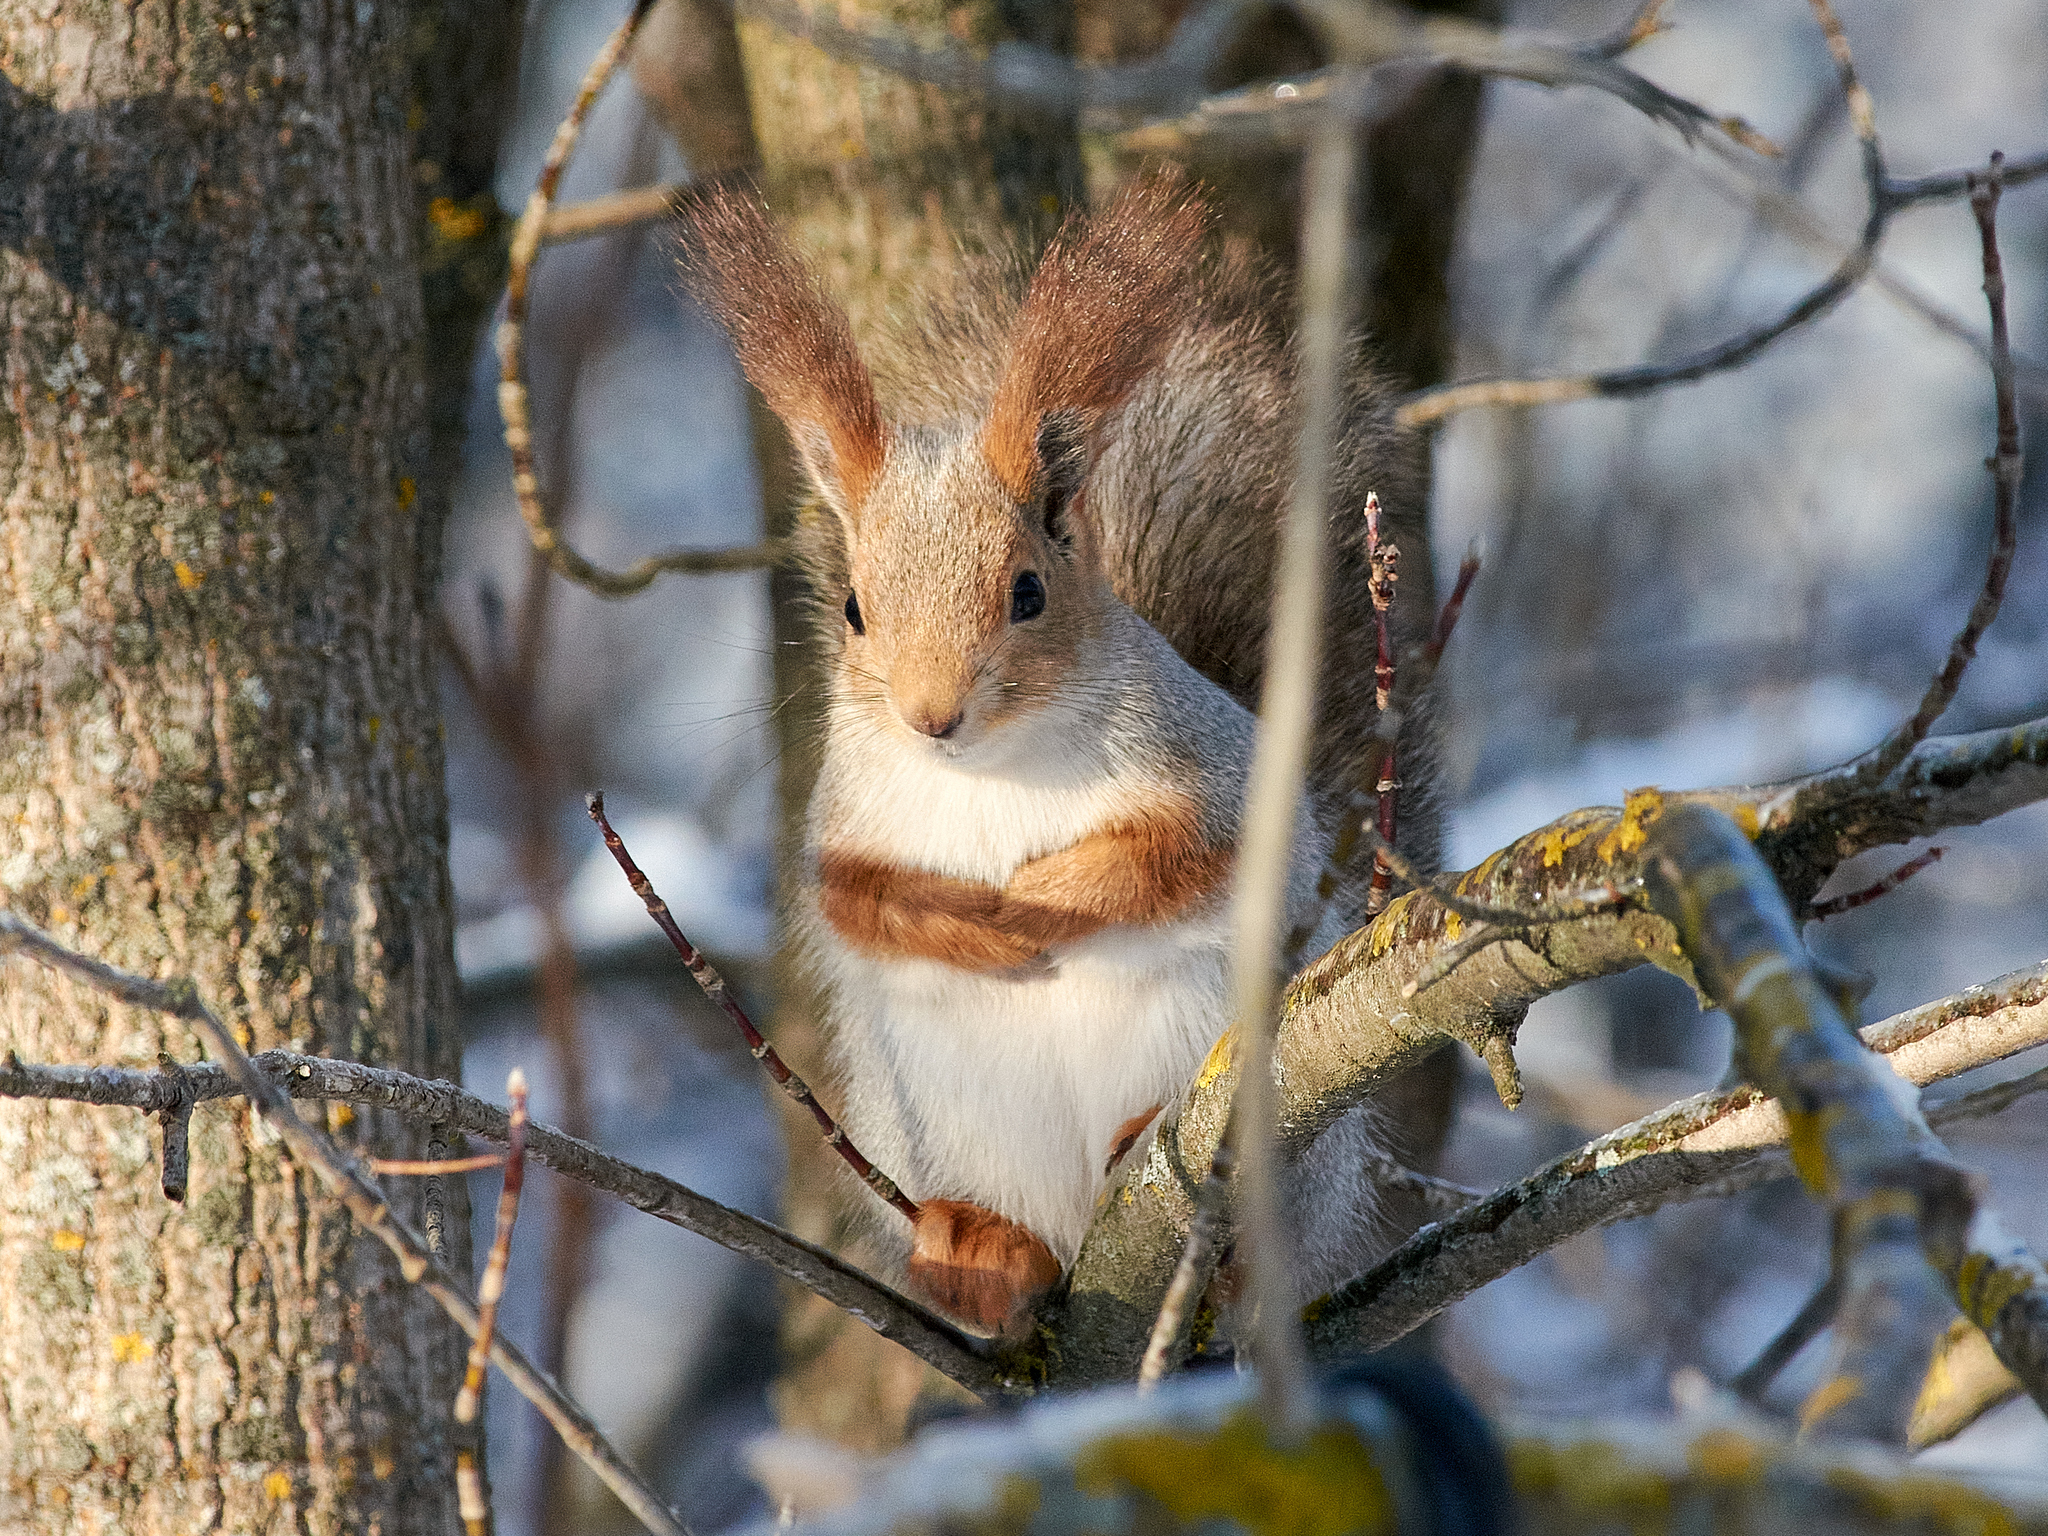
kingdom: Animalia
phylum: Chordata
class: Mammalia
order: Rodentia
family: Sciuridae
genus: Sciurus
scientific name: Sciurus vulgaris
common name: Eurasian red squirrel
